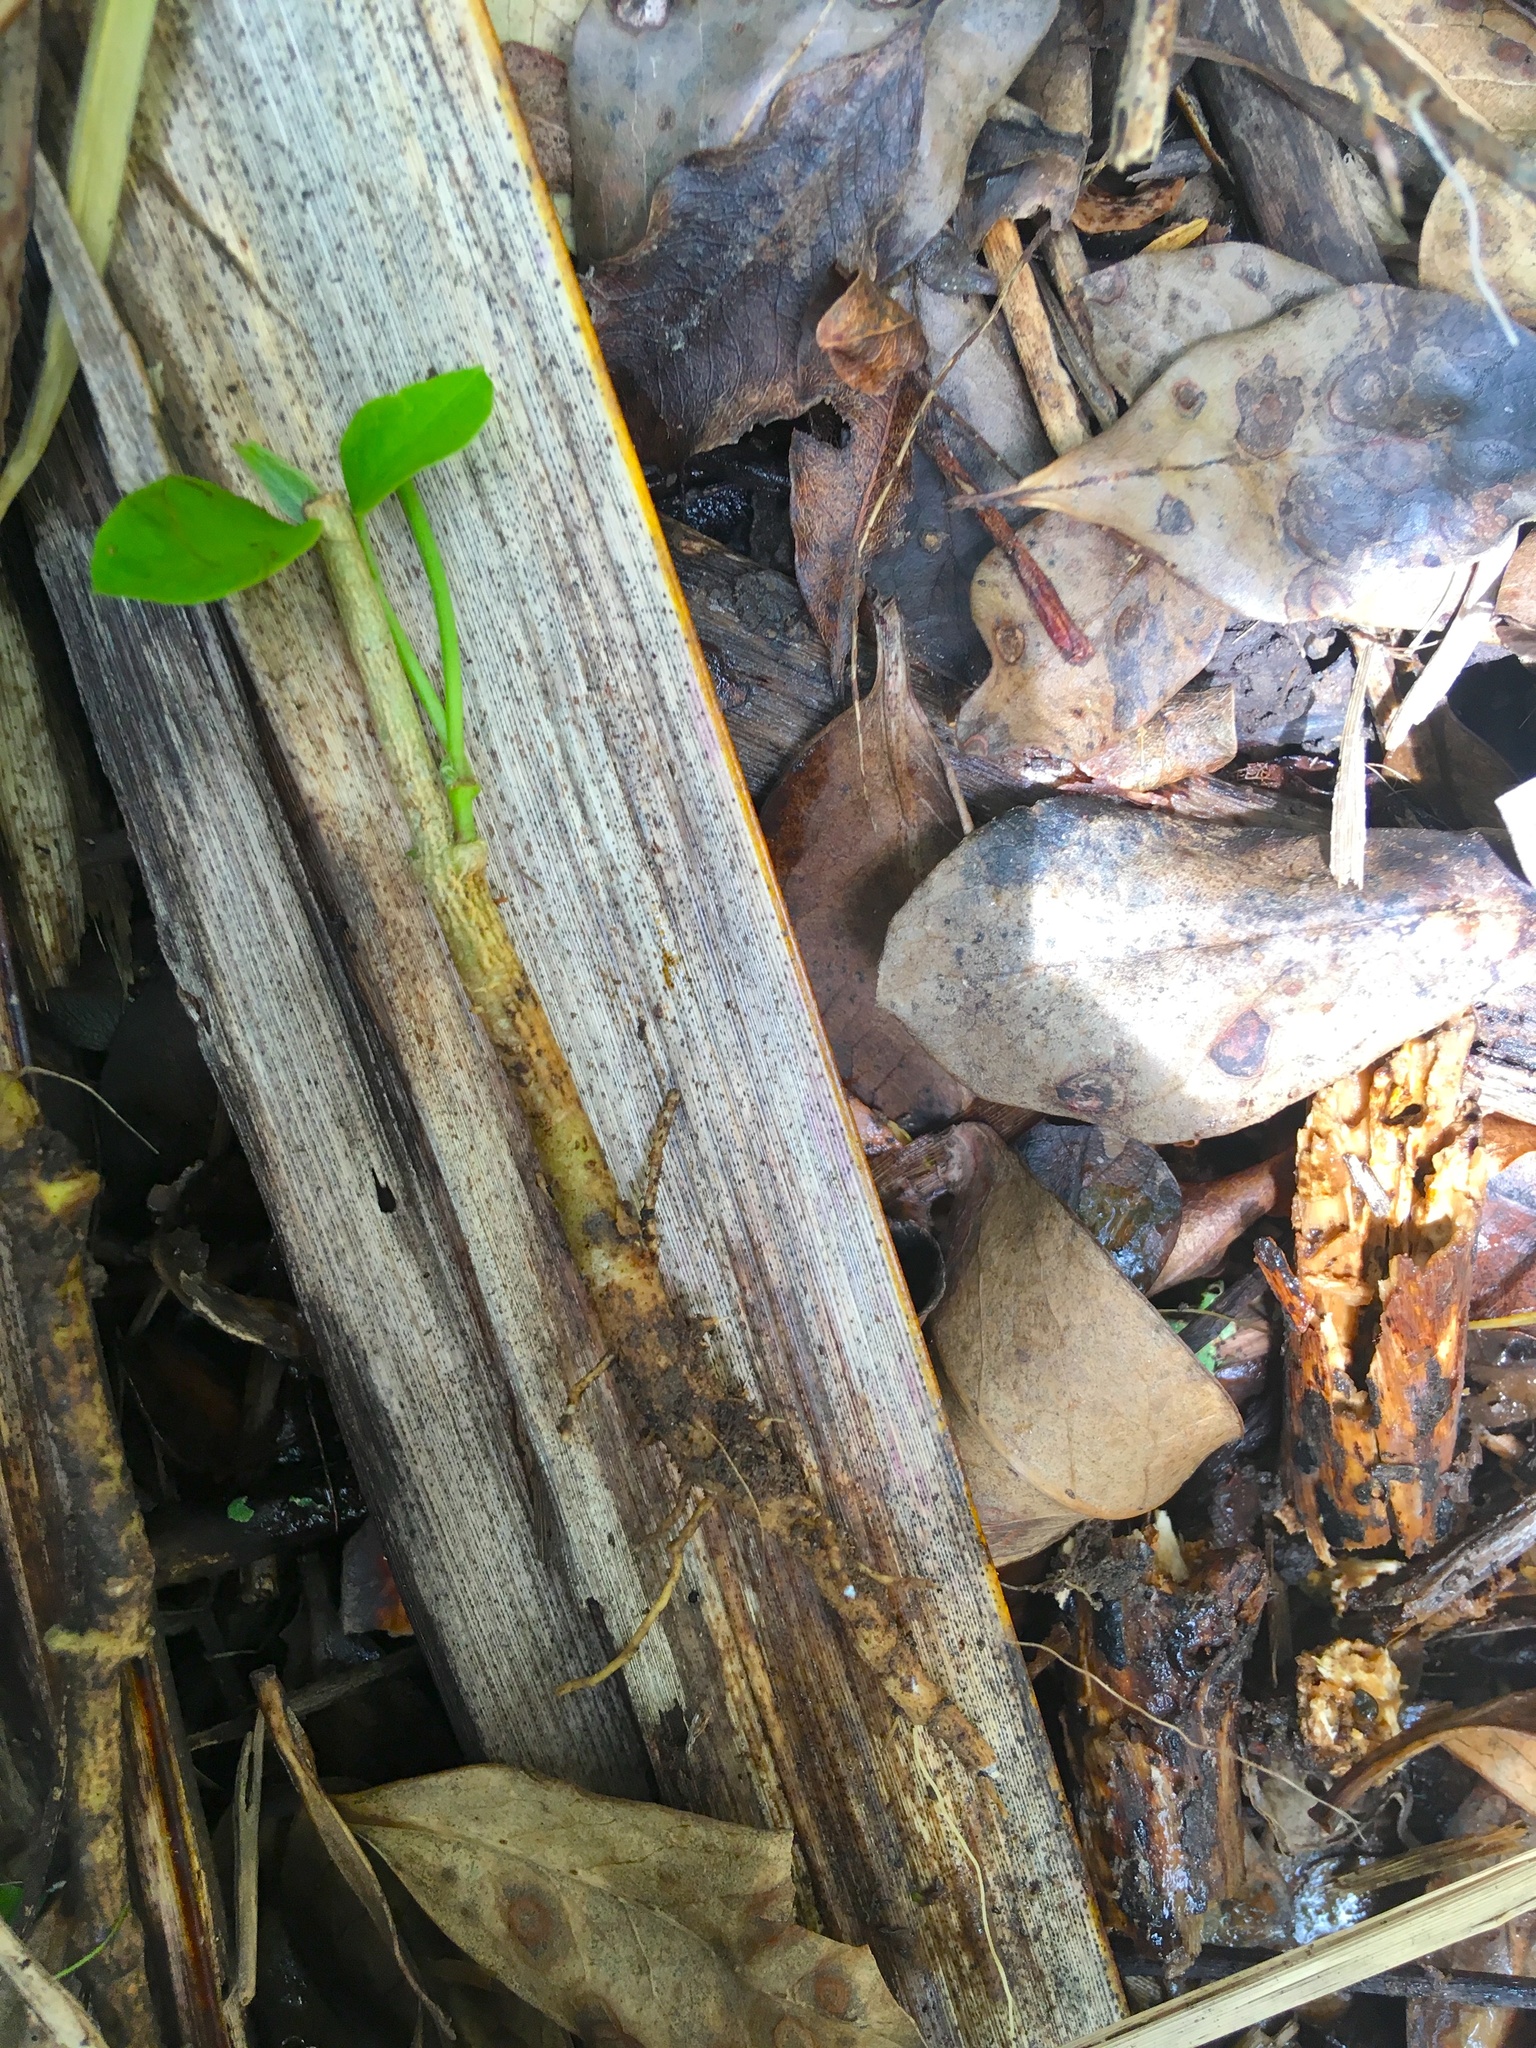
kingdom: Plantae
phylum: Tracheophyta
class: Magnoliopsida
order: Gentianales
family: Apocynaceae
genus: Araujia
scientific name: Araujia sericifera
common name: White bladderflower
